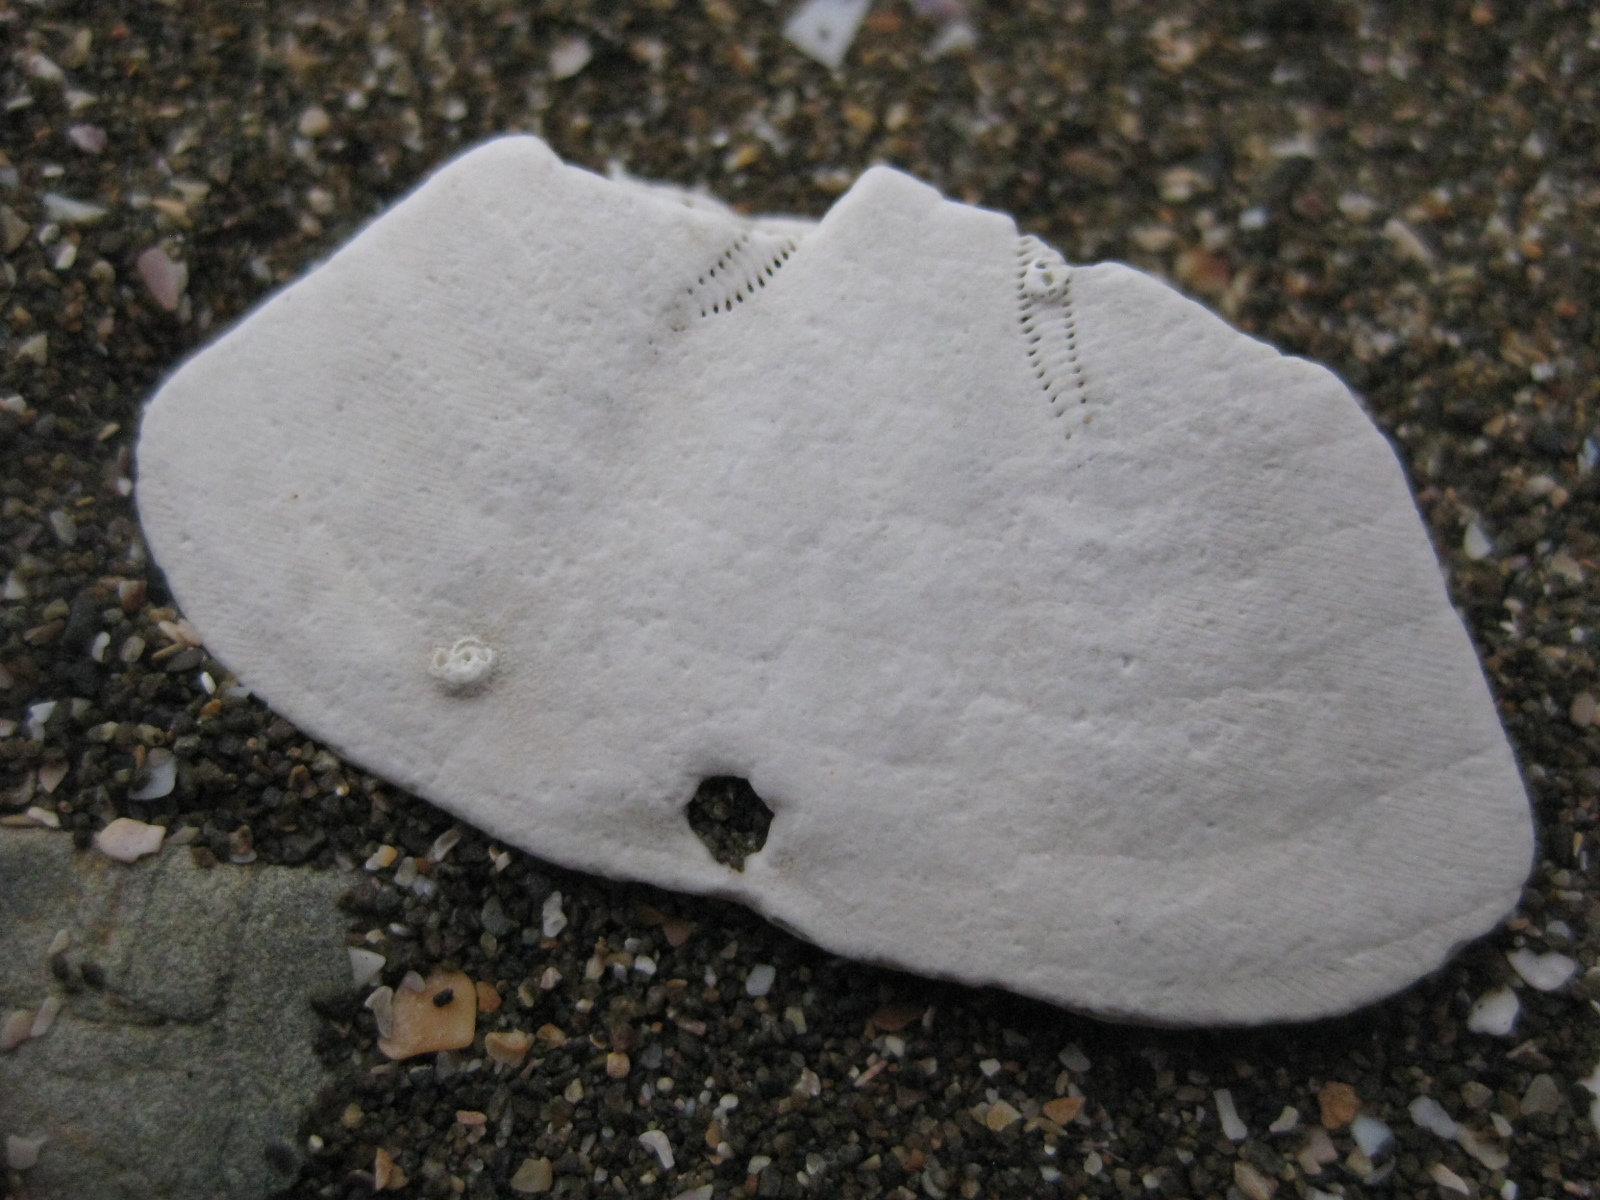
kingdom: Animalia
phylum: Echinodermata
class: Echinoidea
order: Clypeasteroida
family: Clypeasteridae
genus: Fellaster
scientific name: Fellaster zelandiae
